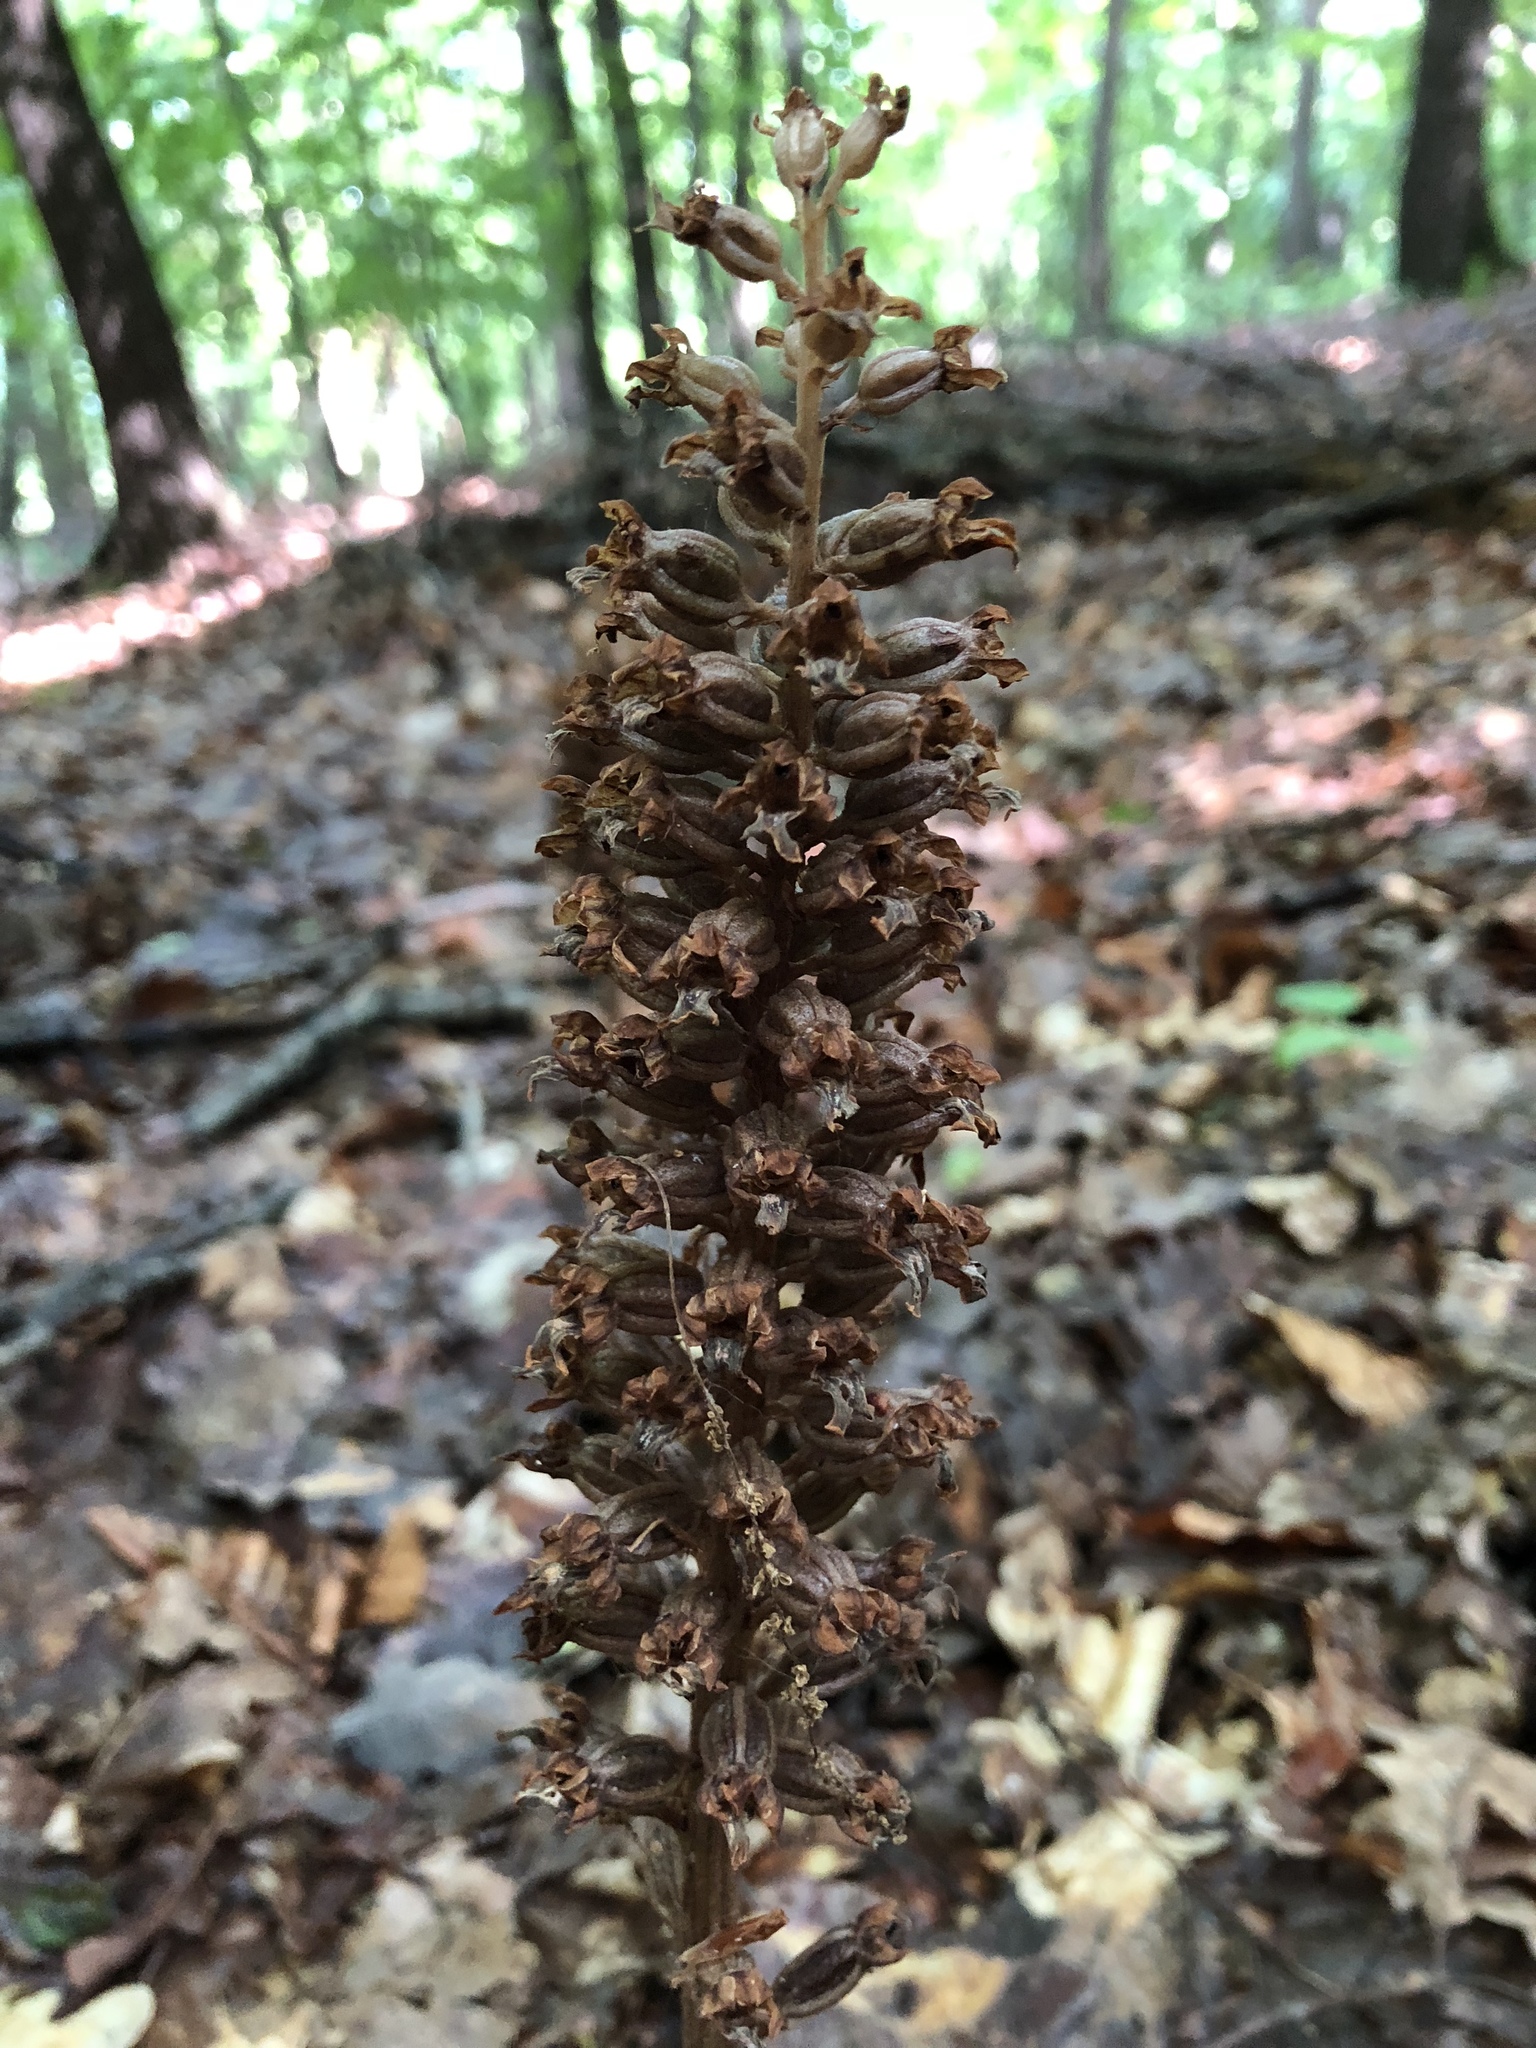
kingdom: Plantae
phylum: Tracheophyta
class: Liliopsida
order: Asparagales
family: Orchidaceae
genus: Neottia
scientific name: Neottia nidus-avis
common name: Bird's-nest orchid
